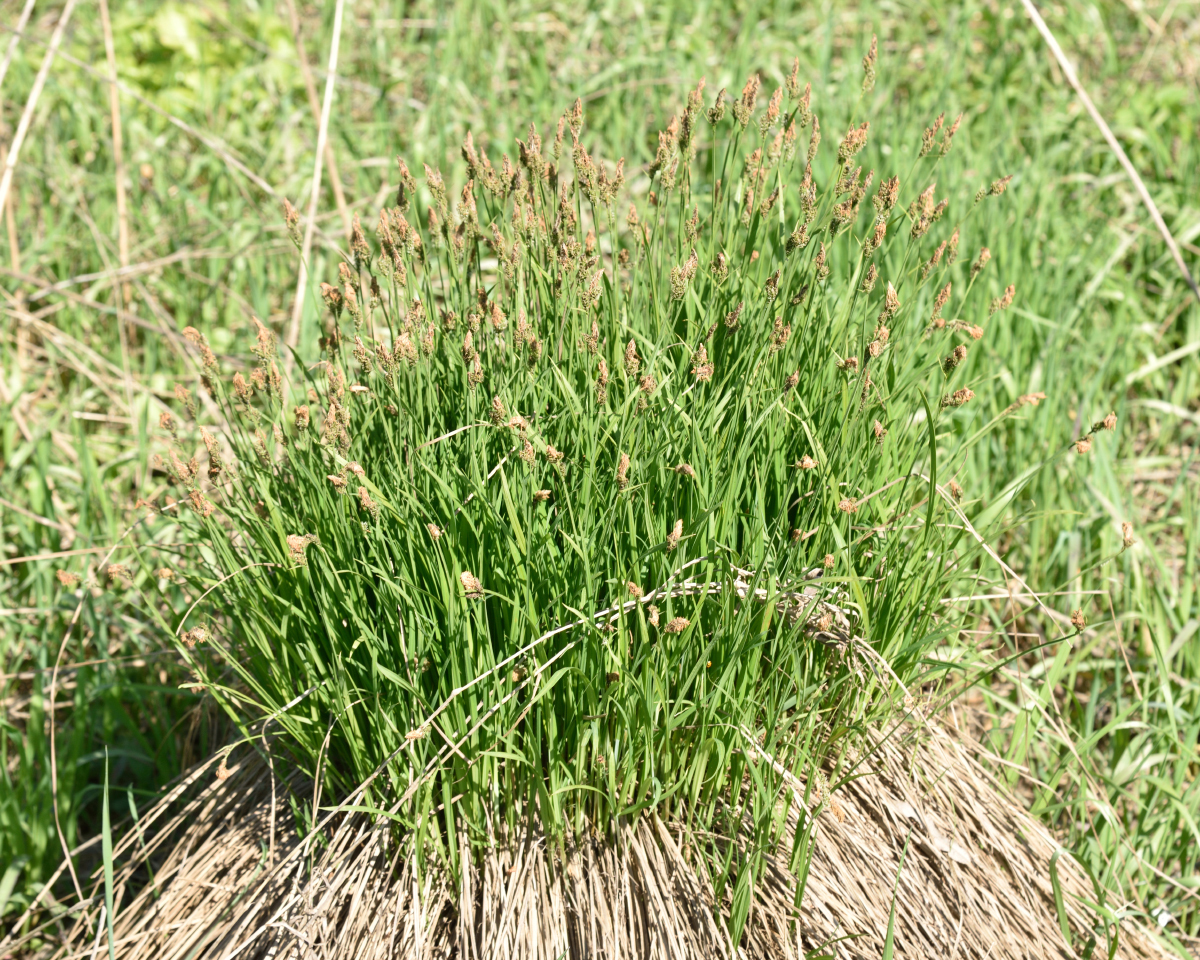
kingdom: Plantae
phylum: Tracheophyta
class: Liliopsida
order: Poales
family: Cyperaceae
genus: Carex
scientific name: Carex cespitosa
